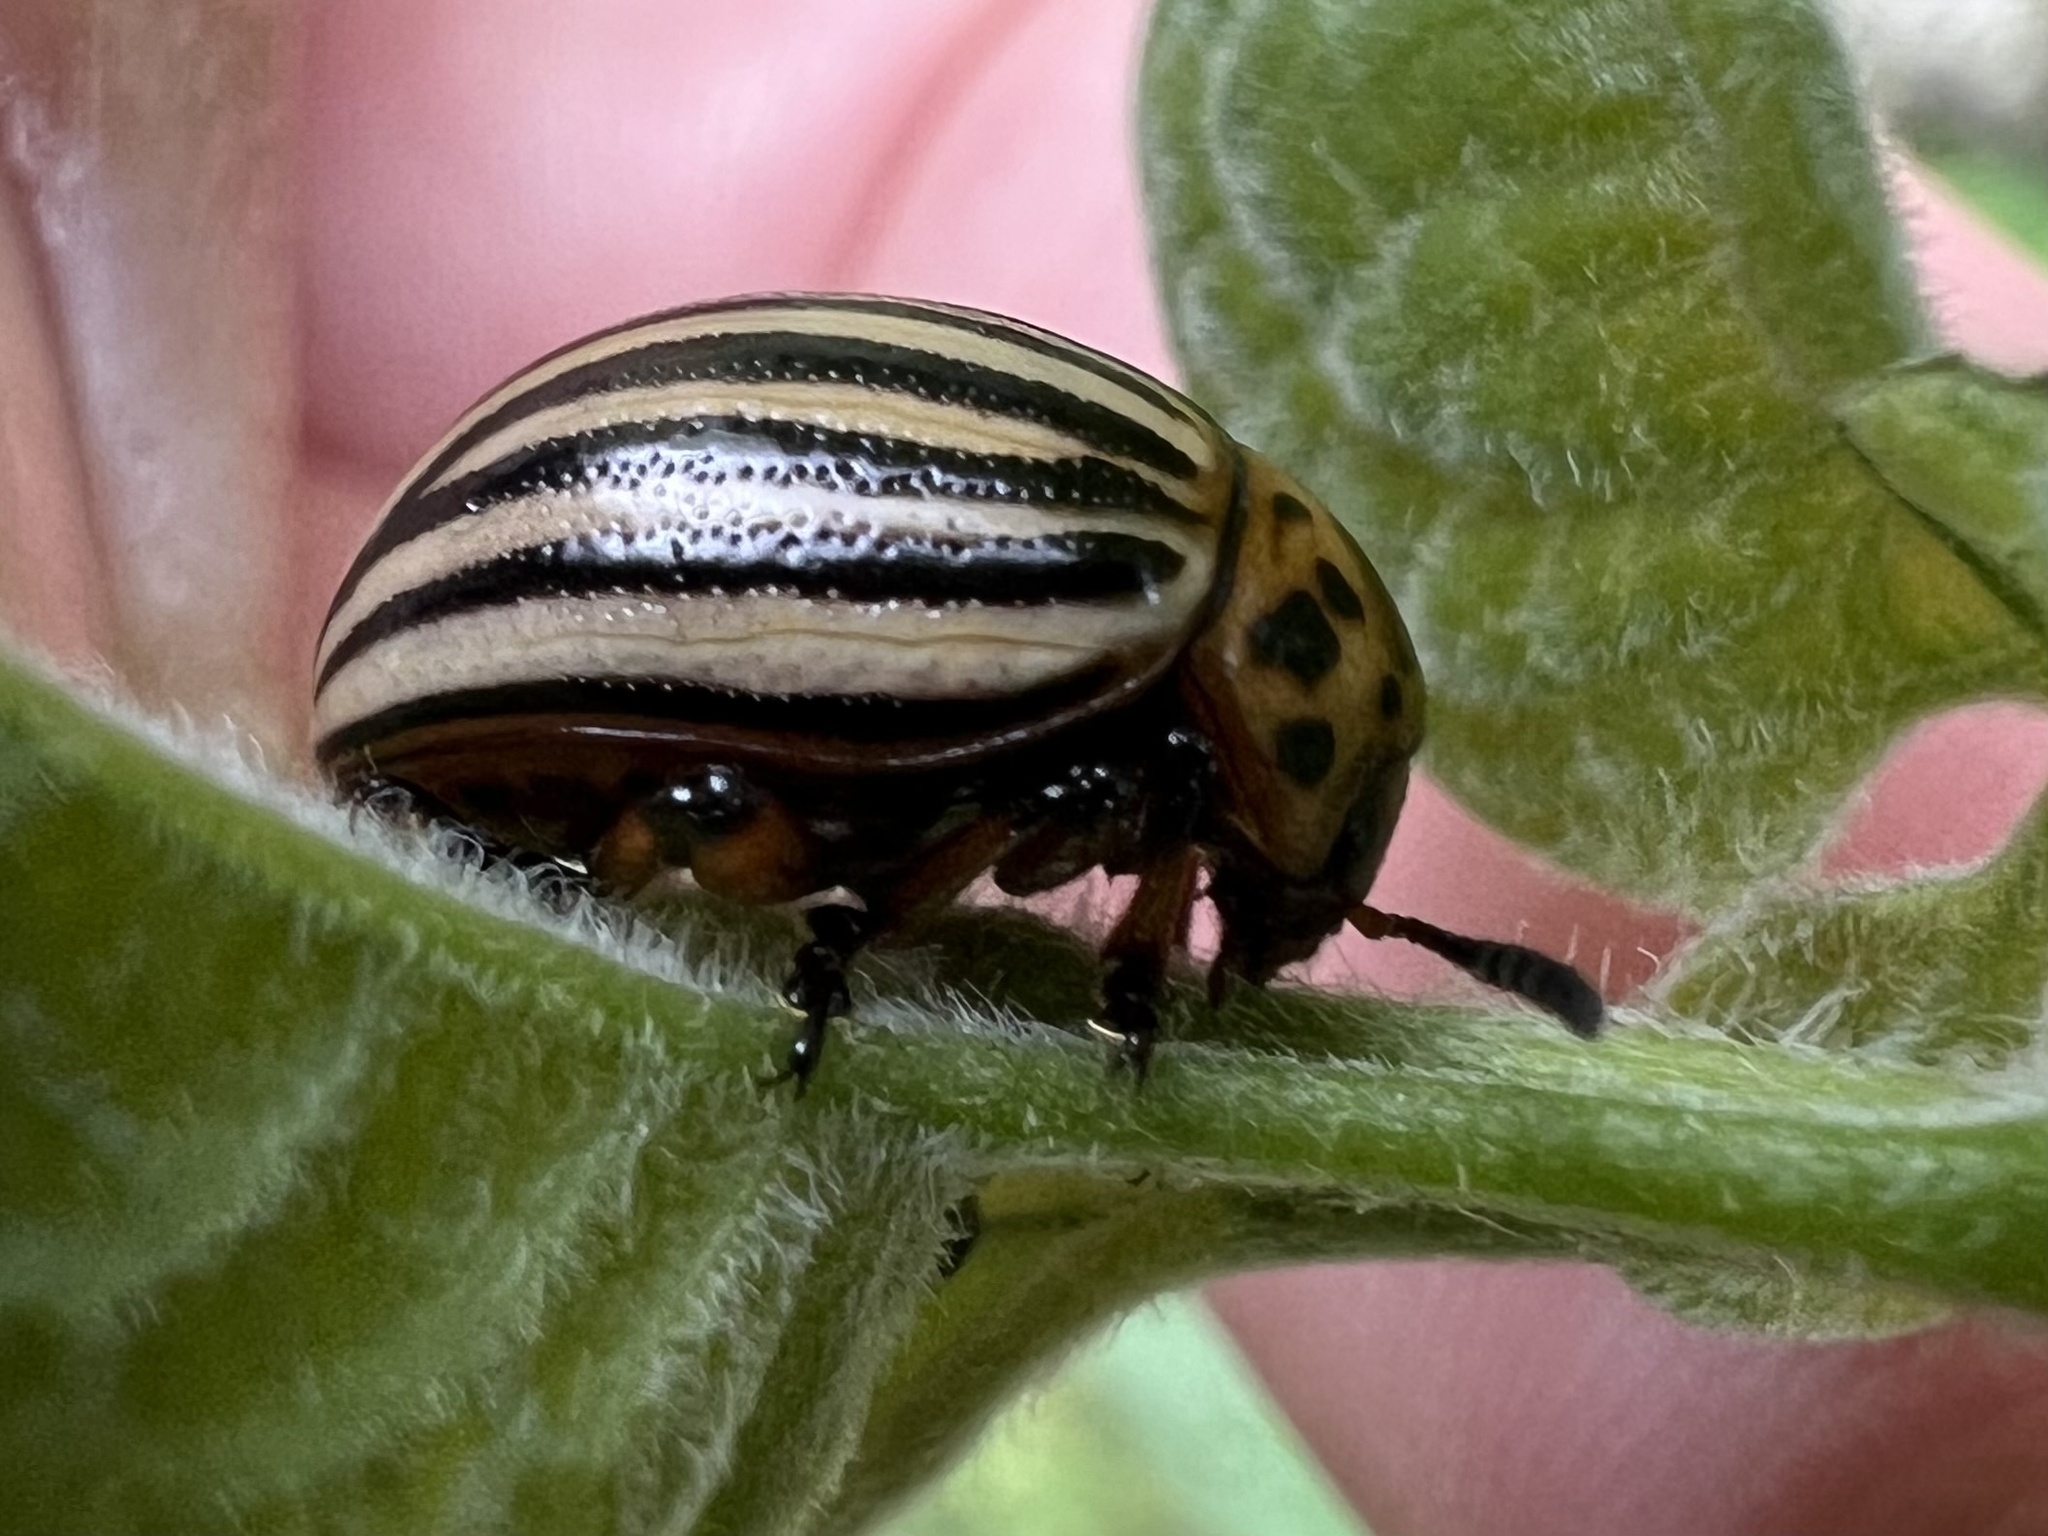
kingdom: Animalia
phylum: Arthropoda
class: Insecta
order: Coleoptera
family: Chrysomelidae
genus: Leptinotarsa
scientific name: Leptinotarsa decemlineata
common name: Colorado potato beetle
